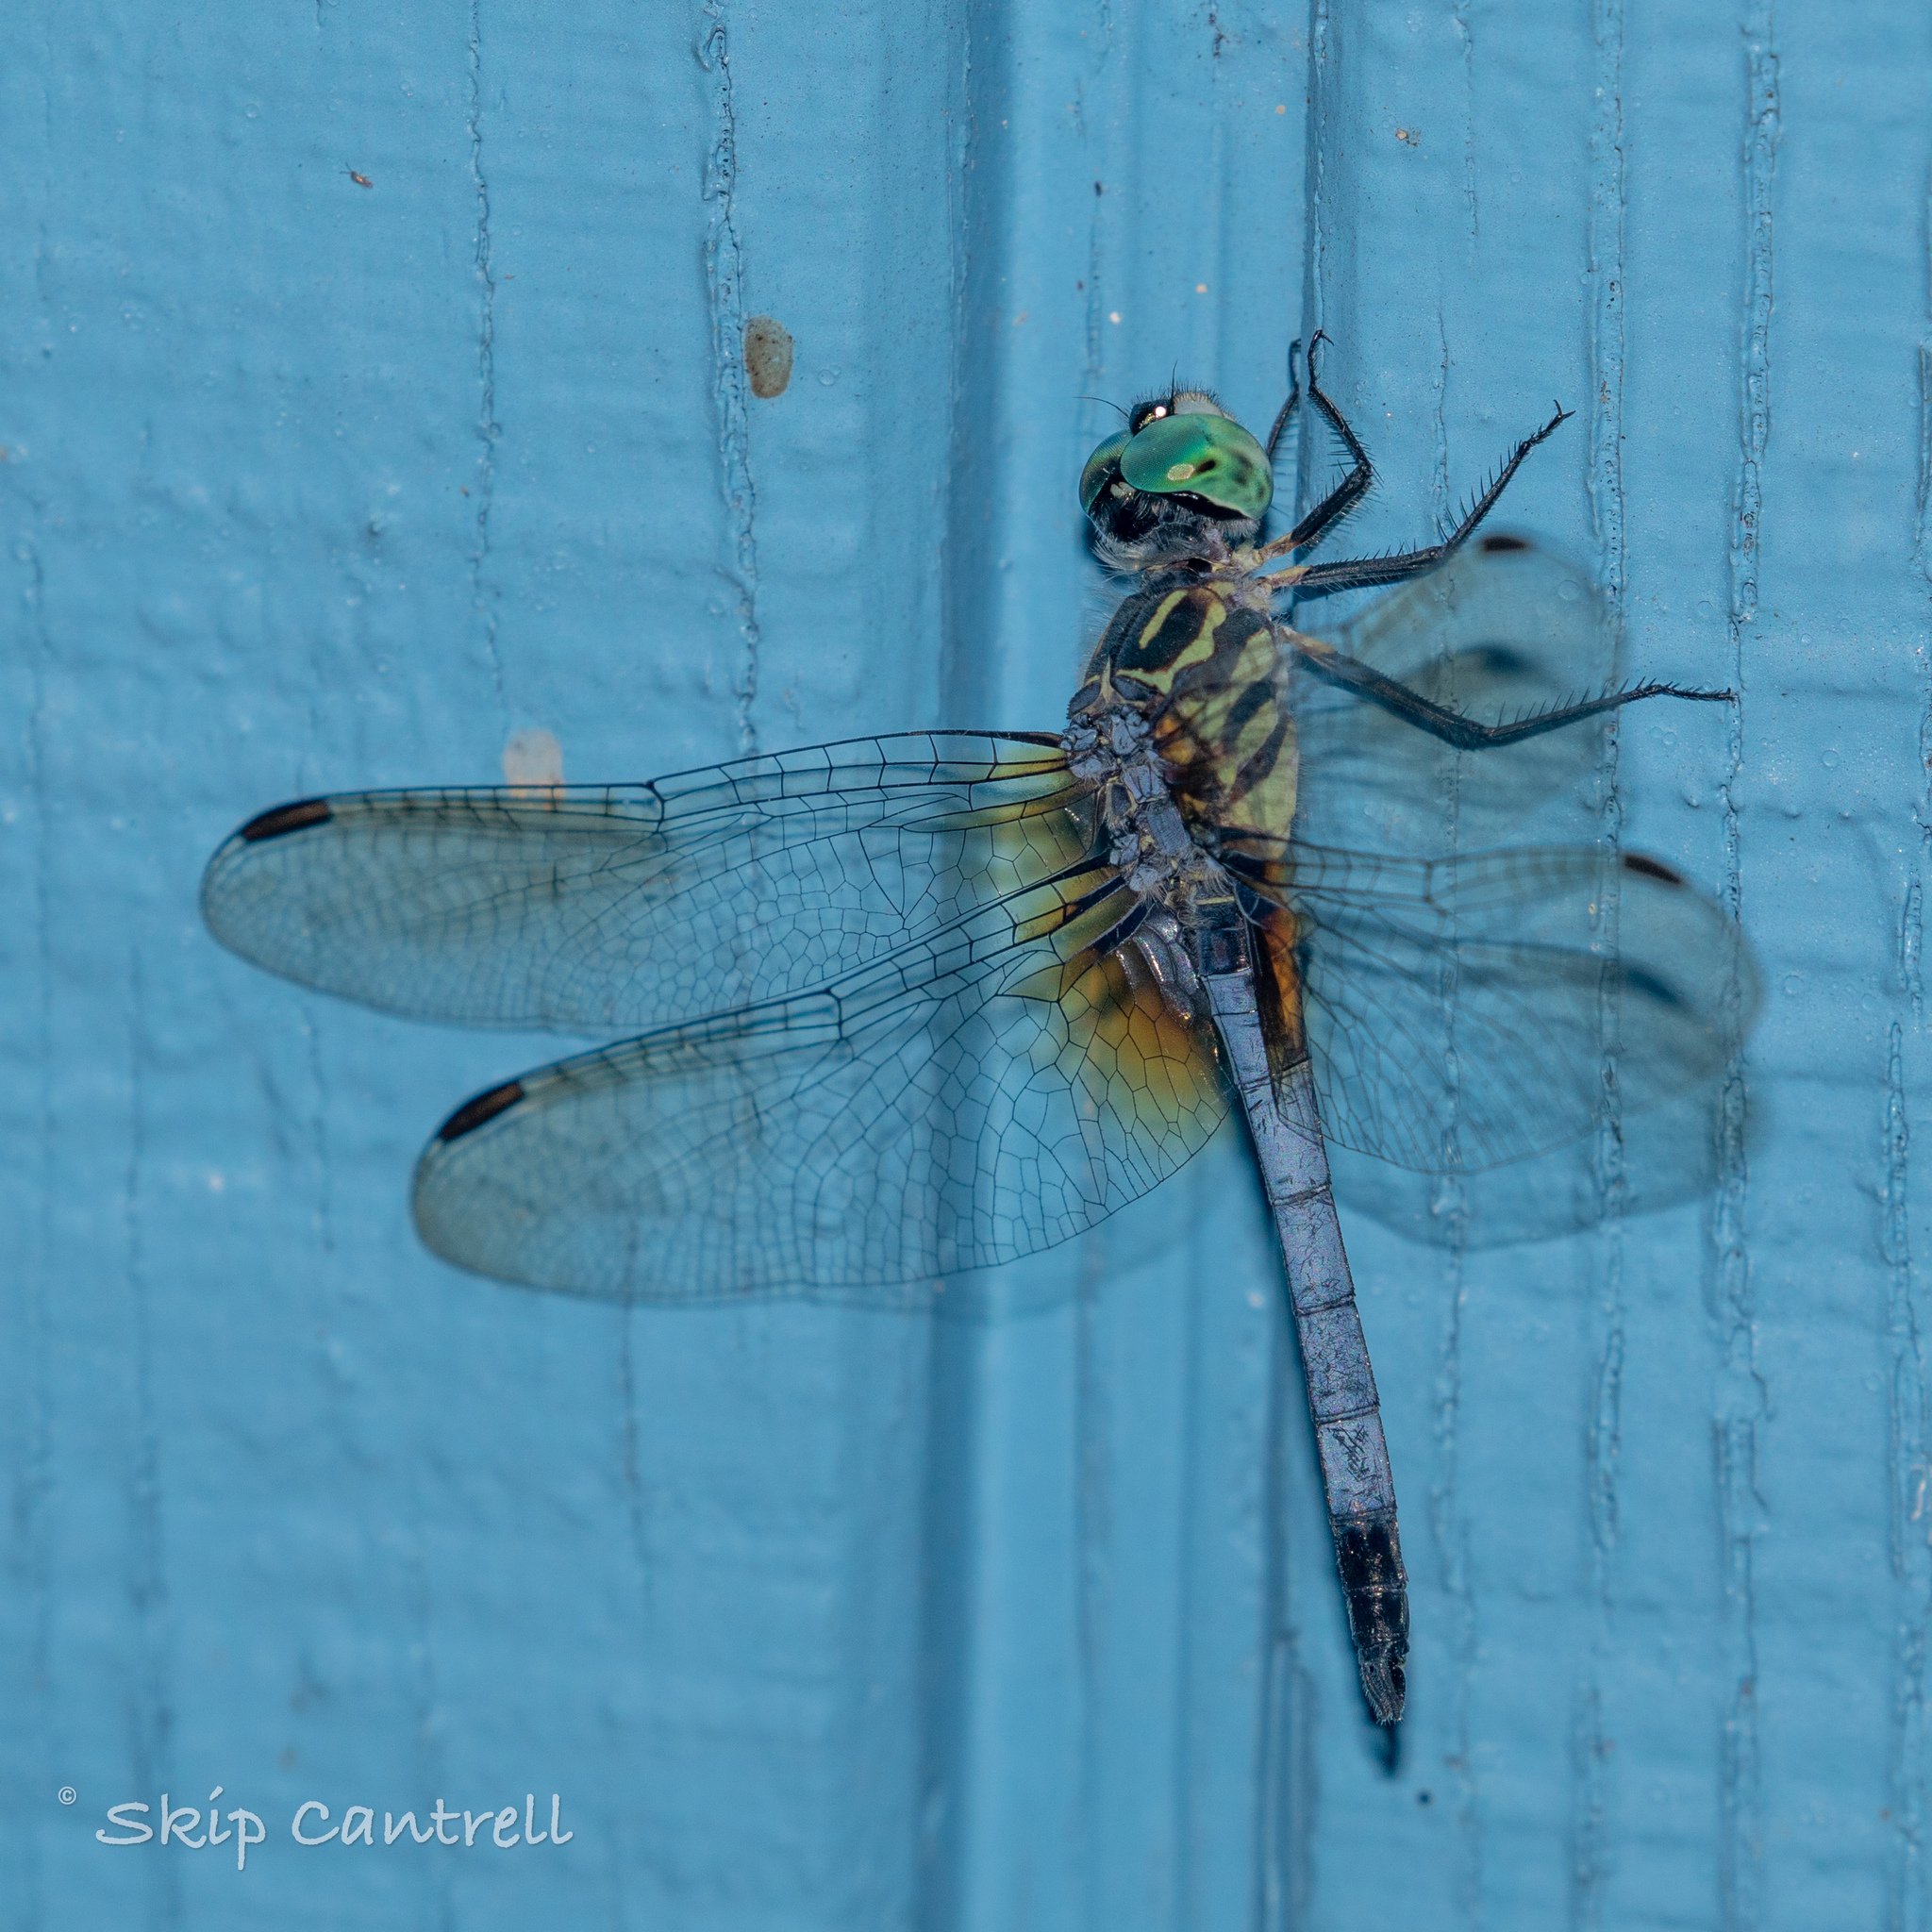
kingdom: Animalia
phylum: Arthropoda
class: Insecta
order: Odonata
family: Libellulidae
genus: Pachydiplax
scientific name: Pachydiplax longipennis
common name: Blue dasher
